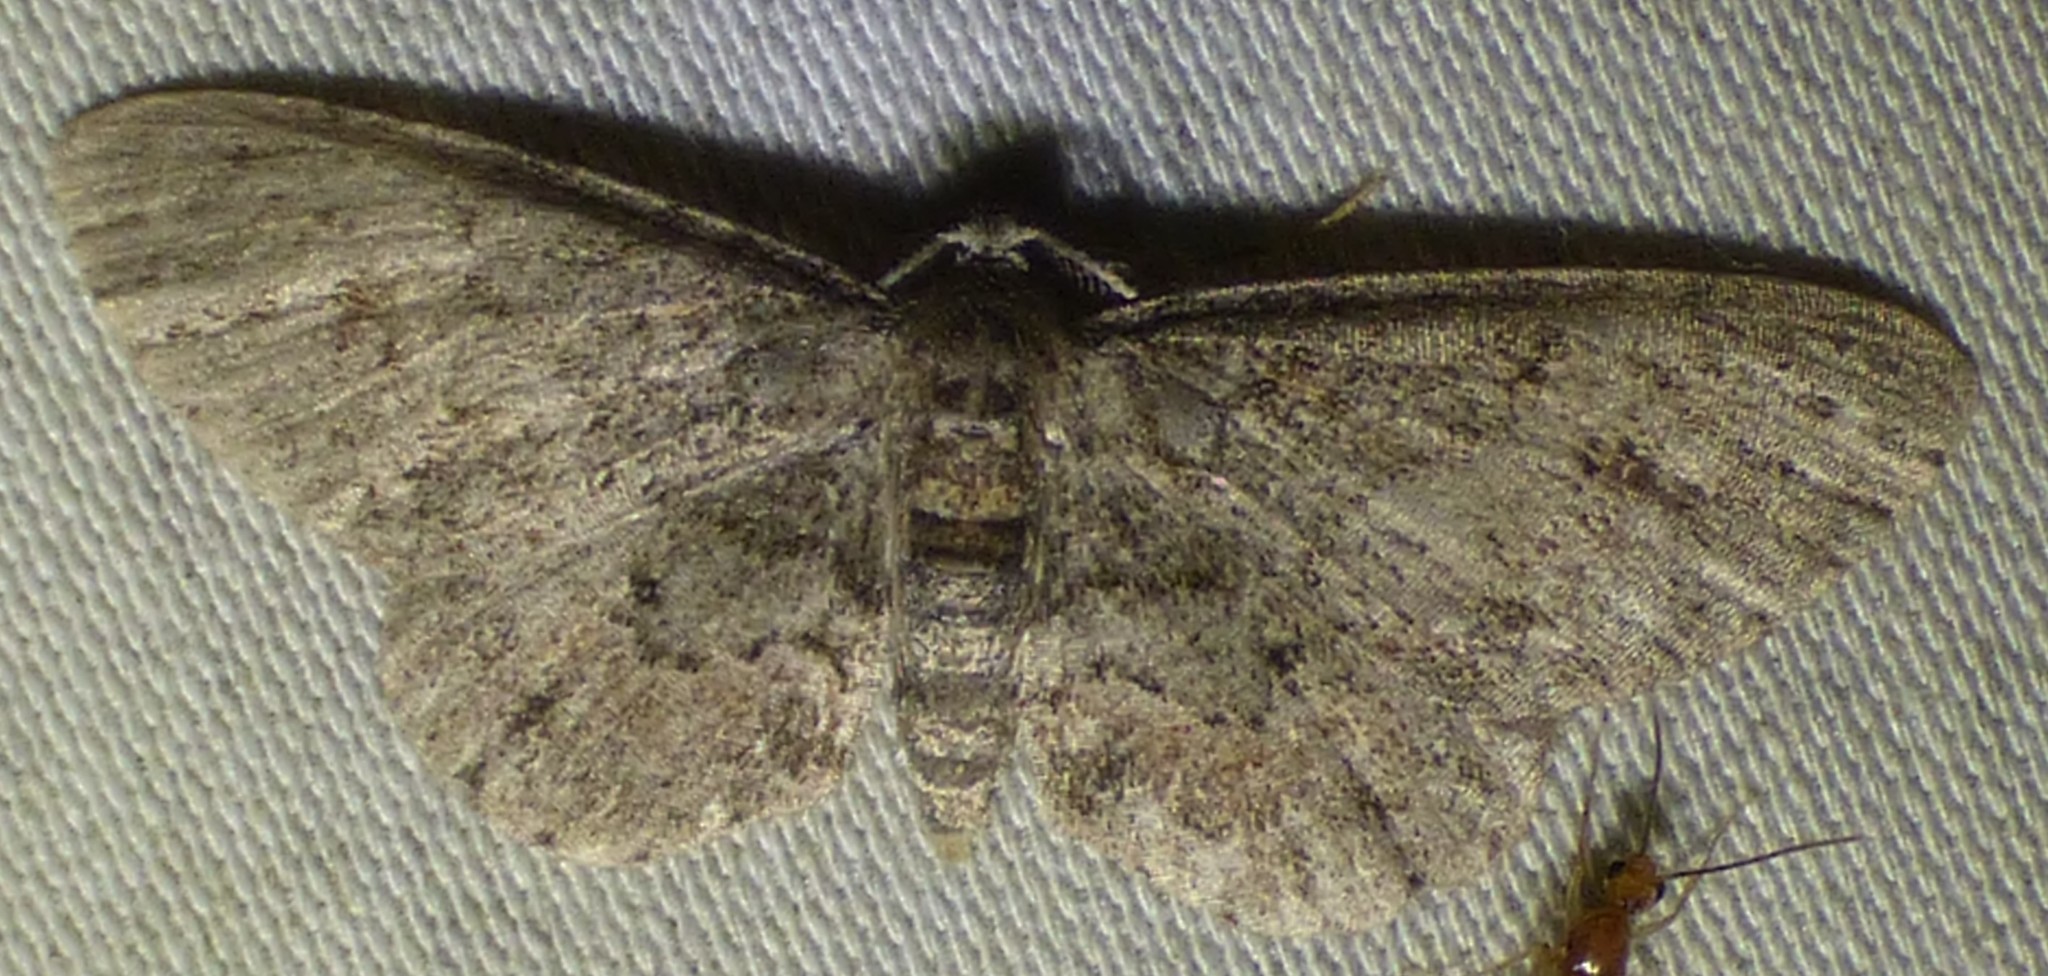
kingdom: Animalia
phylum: Arthropoda
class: Insecta
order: Lepidoptera
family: Geometridae
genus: Glenoides
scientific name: Glenoides texanaria
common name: Texas gray
